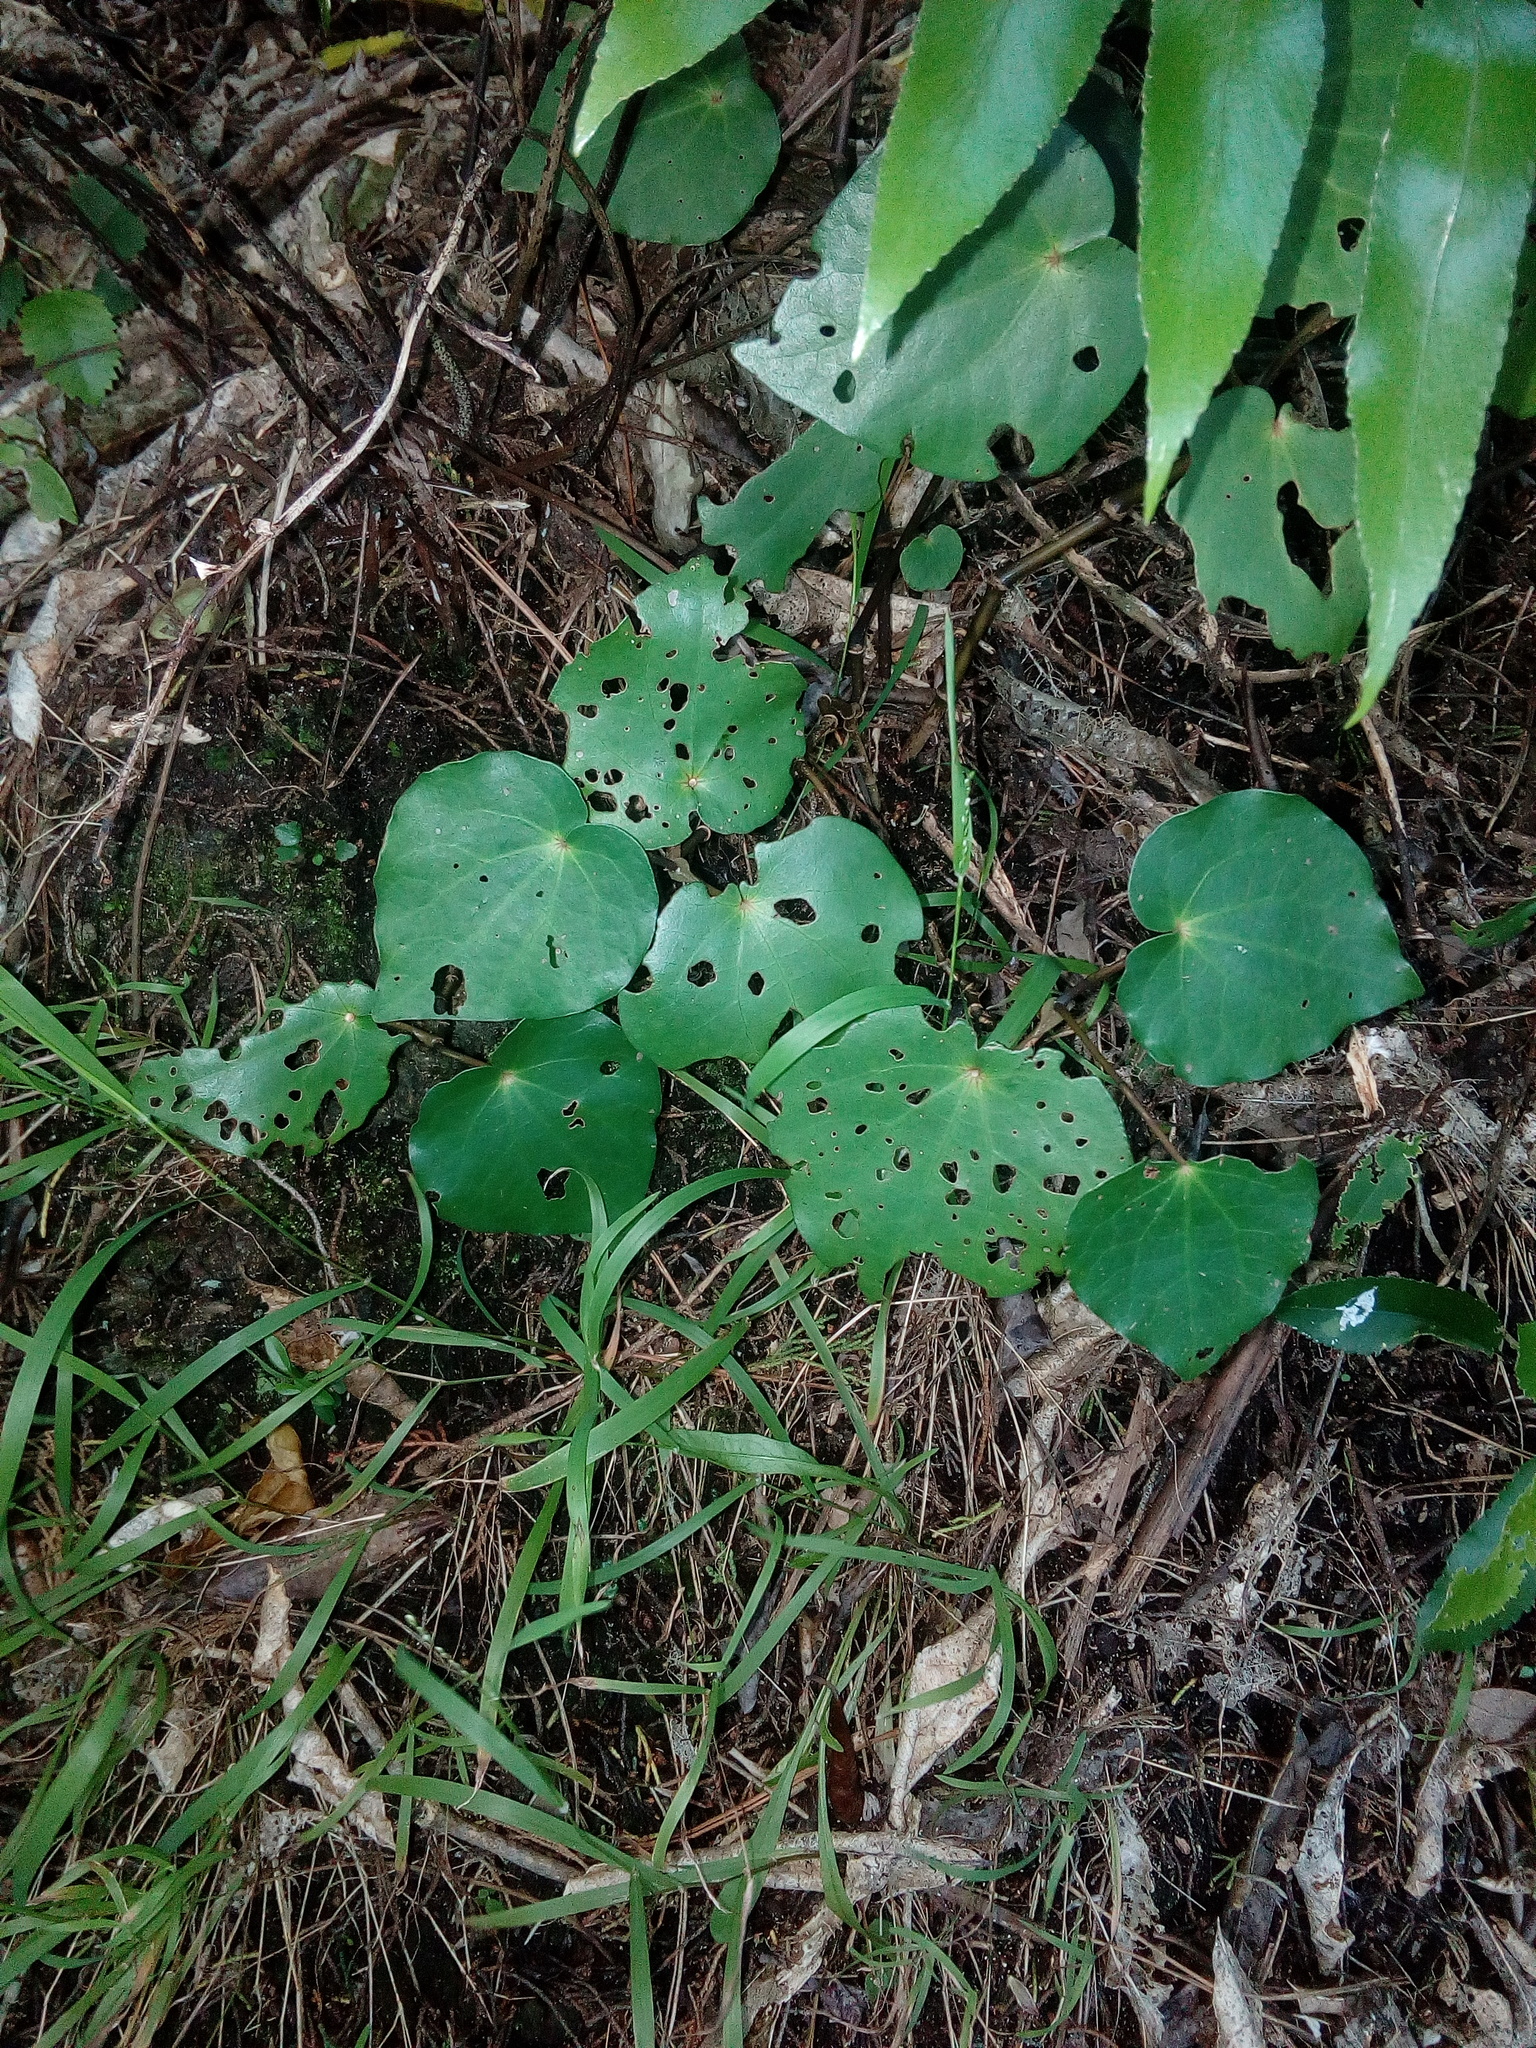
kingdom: Plantae
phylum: Tracheophyta
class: Magnoliopsida
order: Piperales
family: Piperaceae
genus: Macropiper
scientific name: Macropiper excelsum
